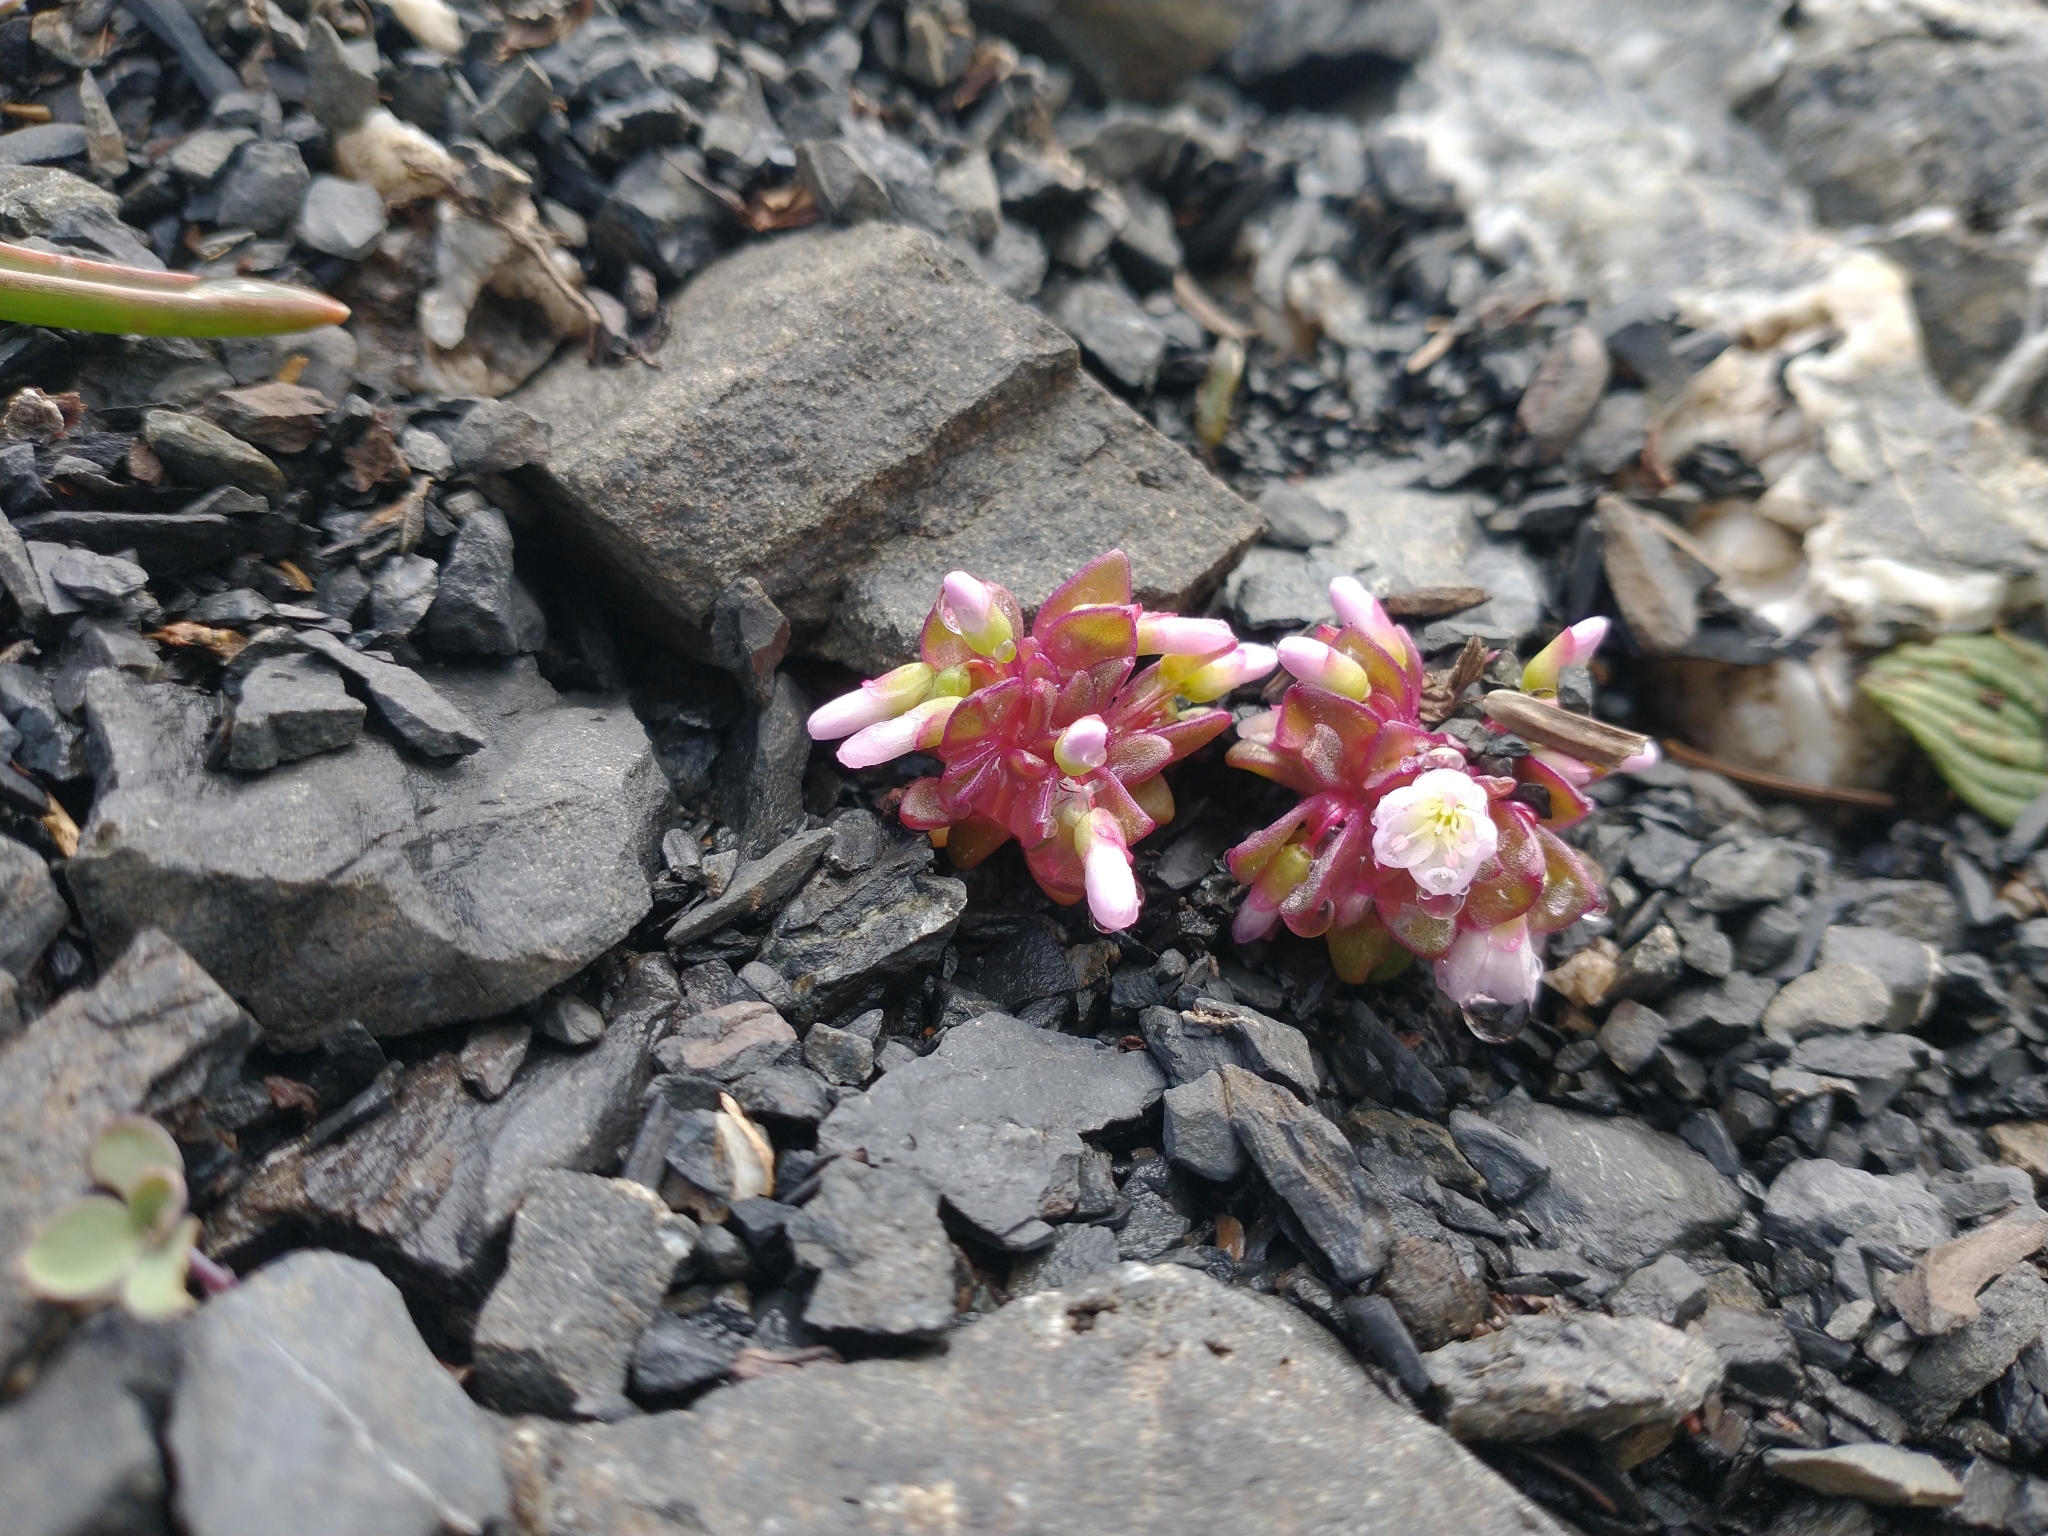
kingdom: Plantae
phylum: Tracheophyta
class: Magnoliopsida
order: Caryophyllales
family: Montiaceae
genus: Claytonia
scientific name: Claytonia saxosa
